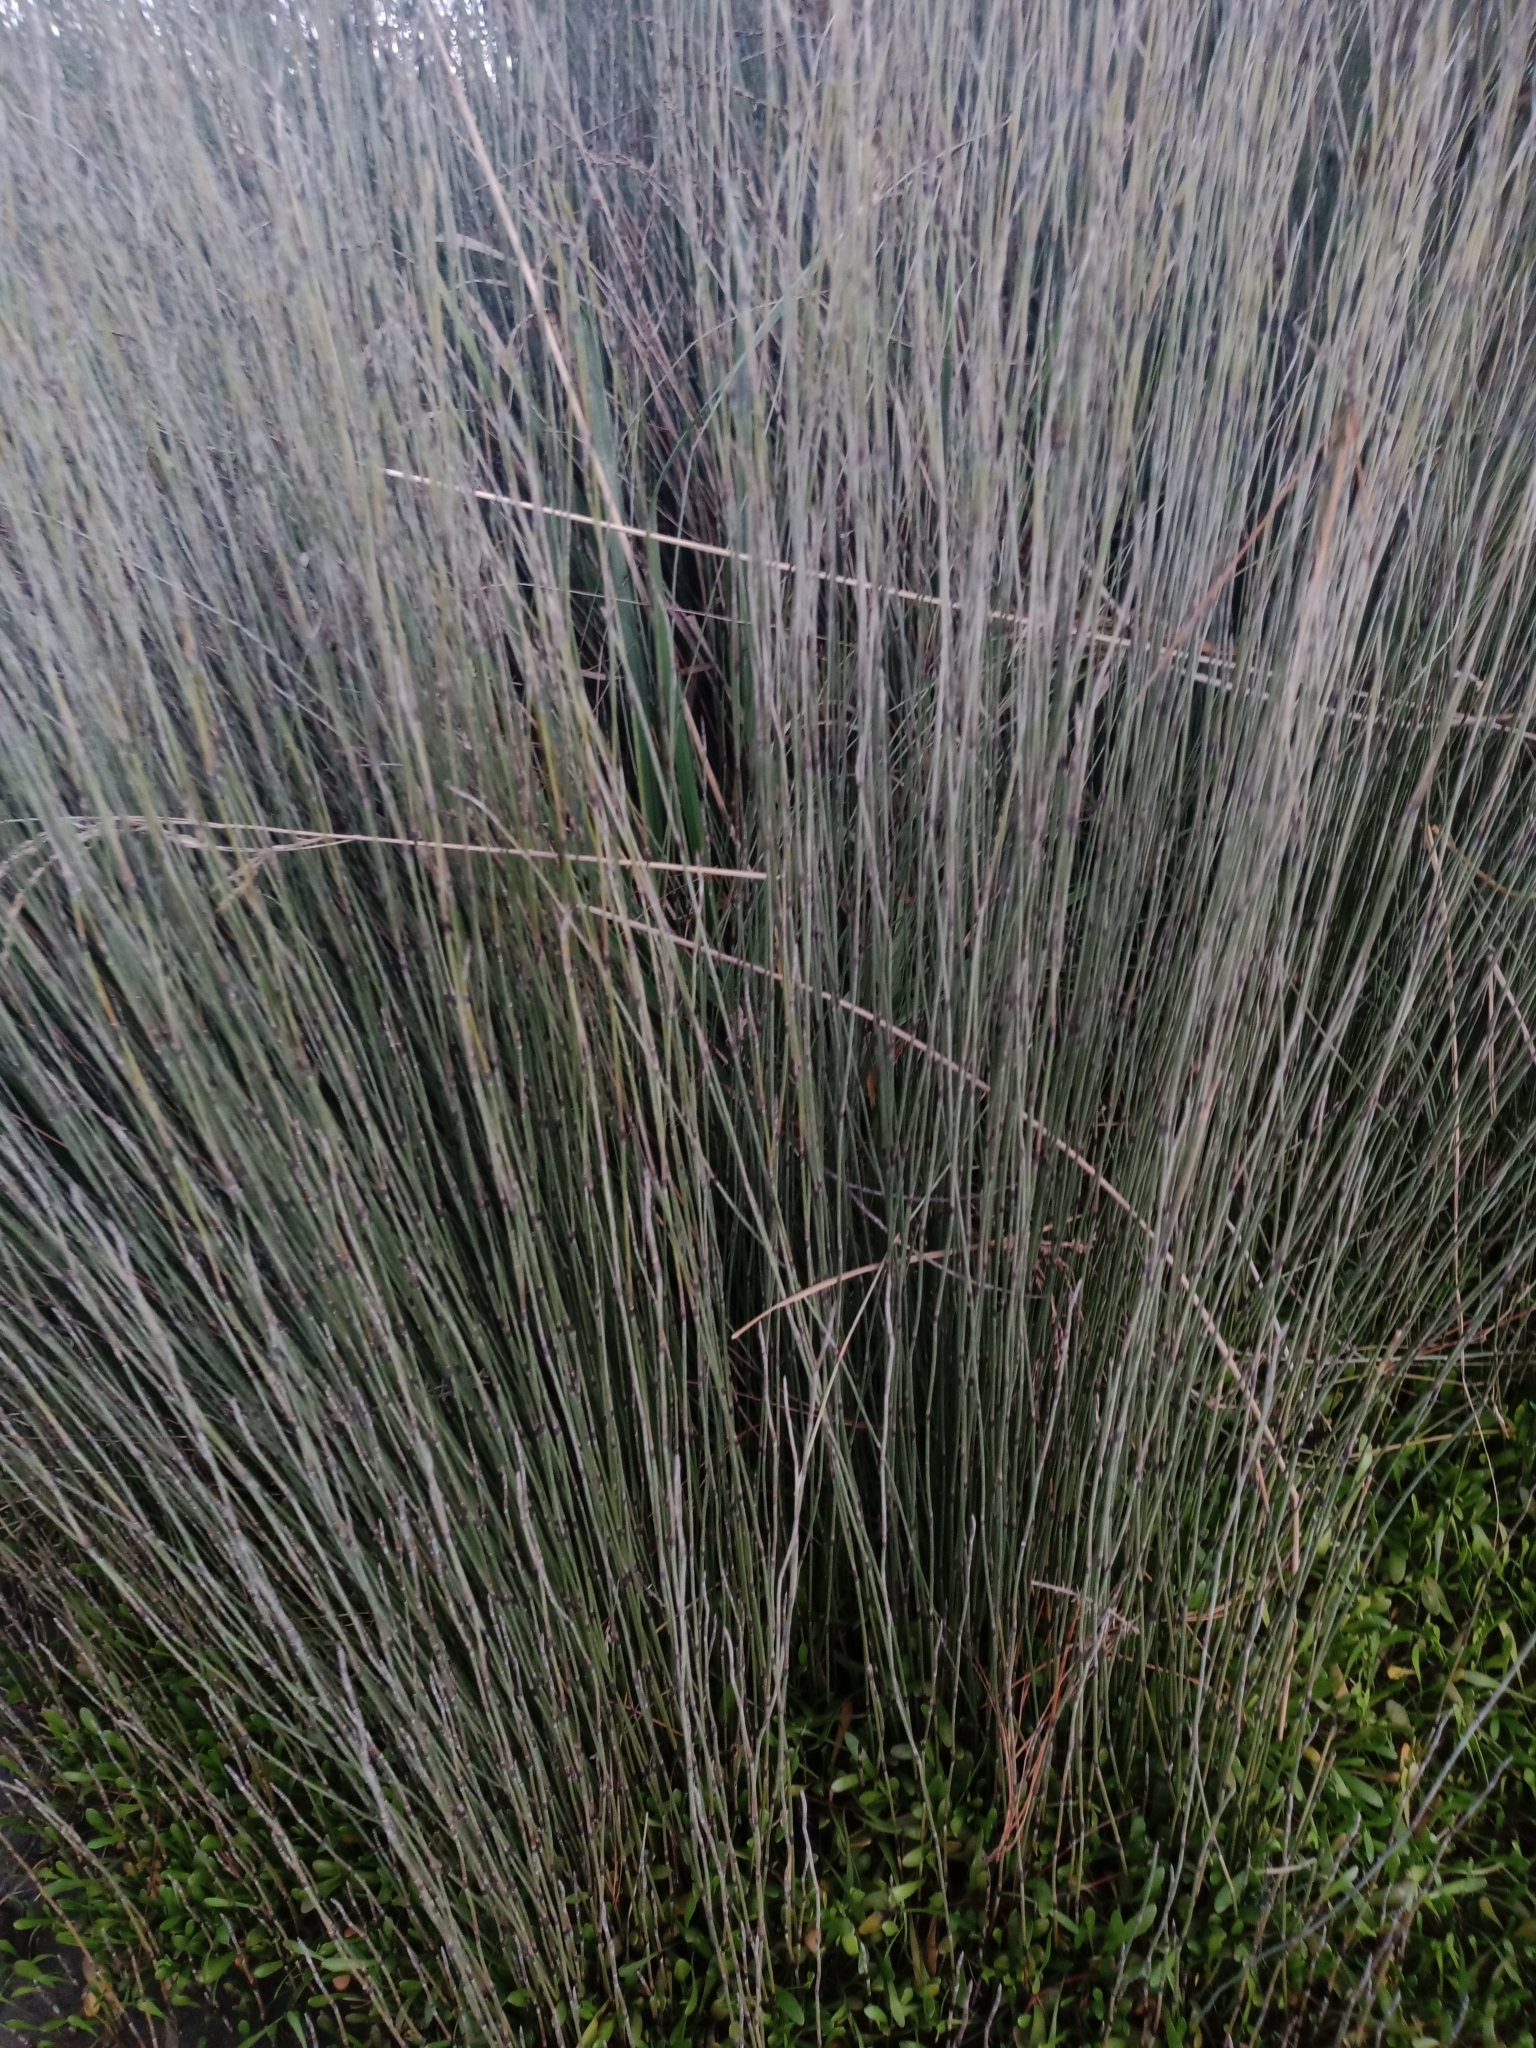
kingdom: Plantae
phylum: Tracheophyta
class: Liliopsida
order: Poales
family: Restionaceae
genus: Apodasmia
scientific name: Apodasmia similis
